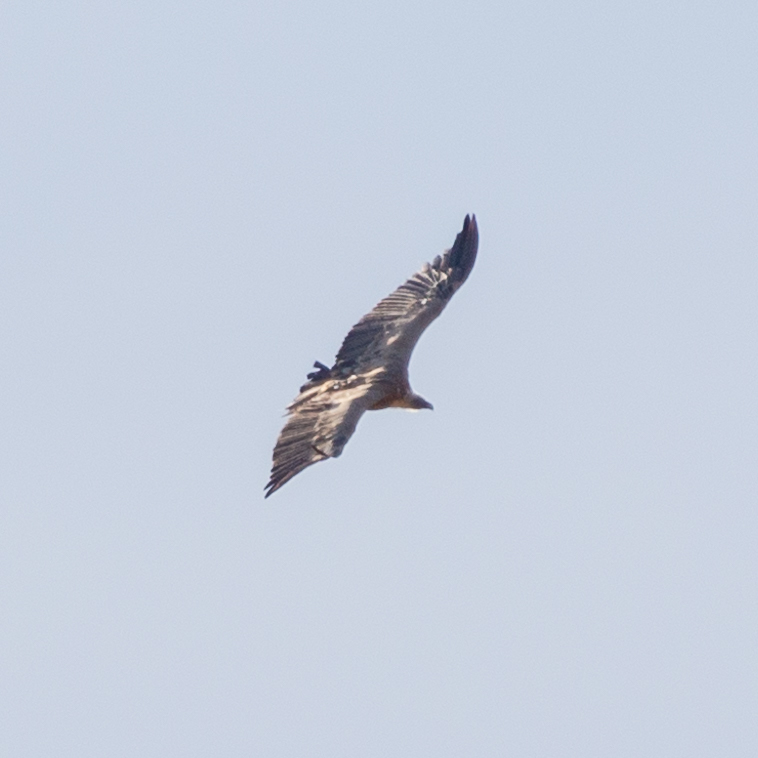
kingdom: Animalia
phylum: Chordata
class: Aves
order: Accipitriformes
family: Accipitridae
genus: Gyps
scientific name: Gyps fulvus
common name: Griffon vulture
